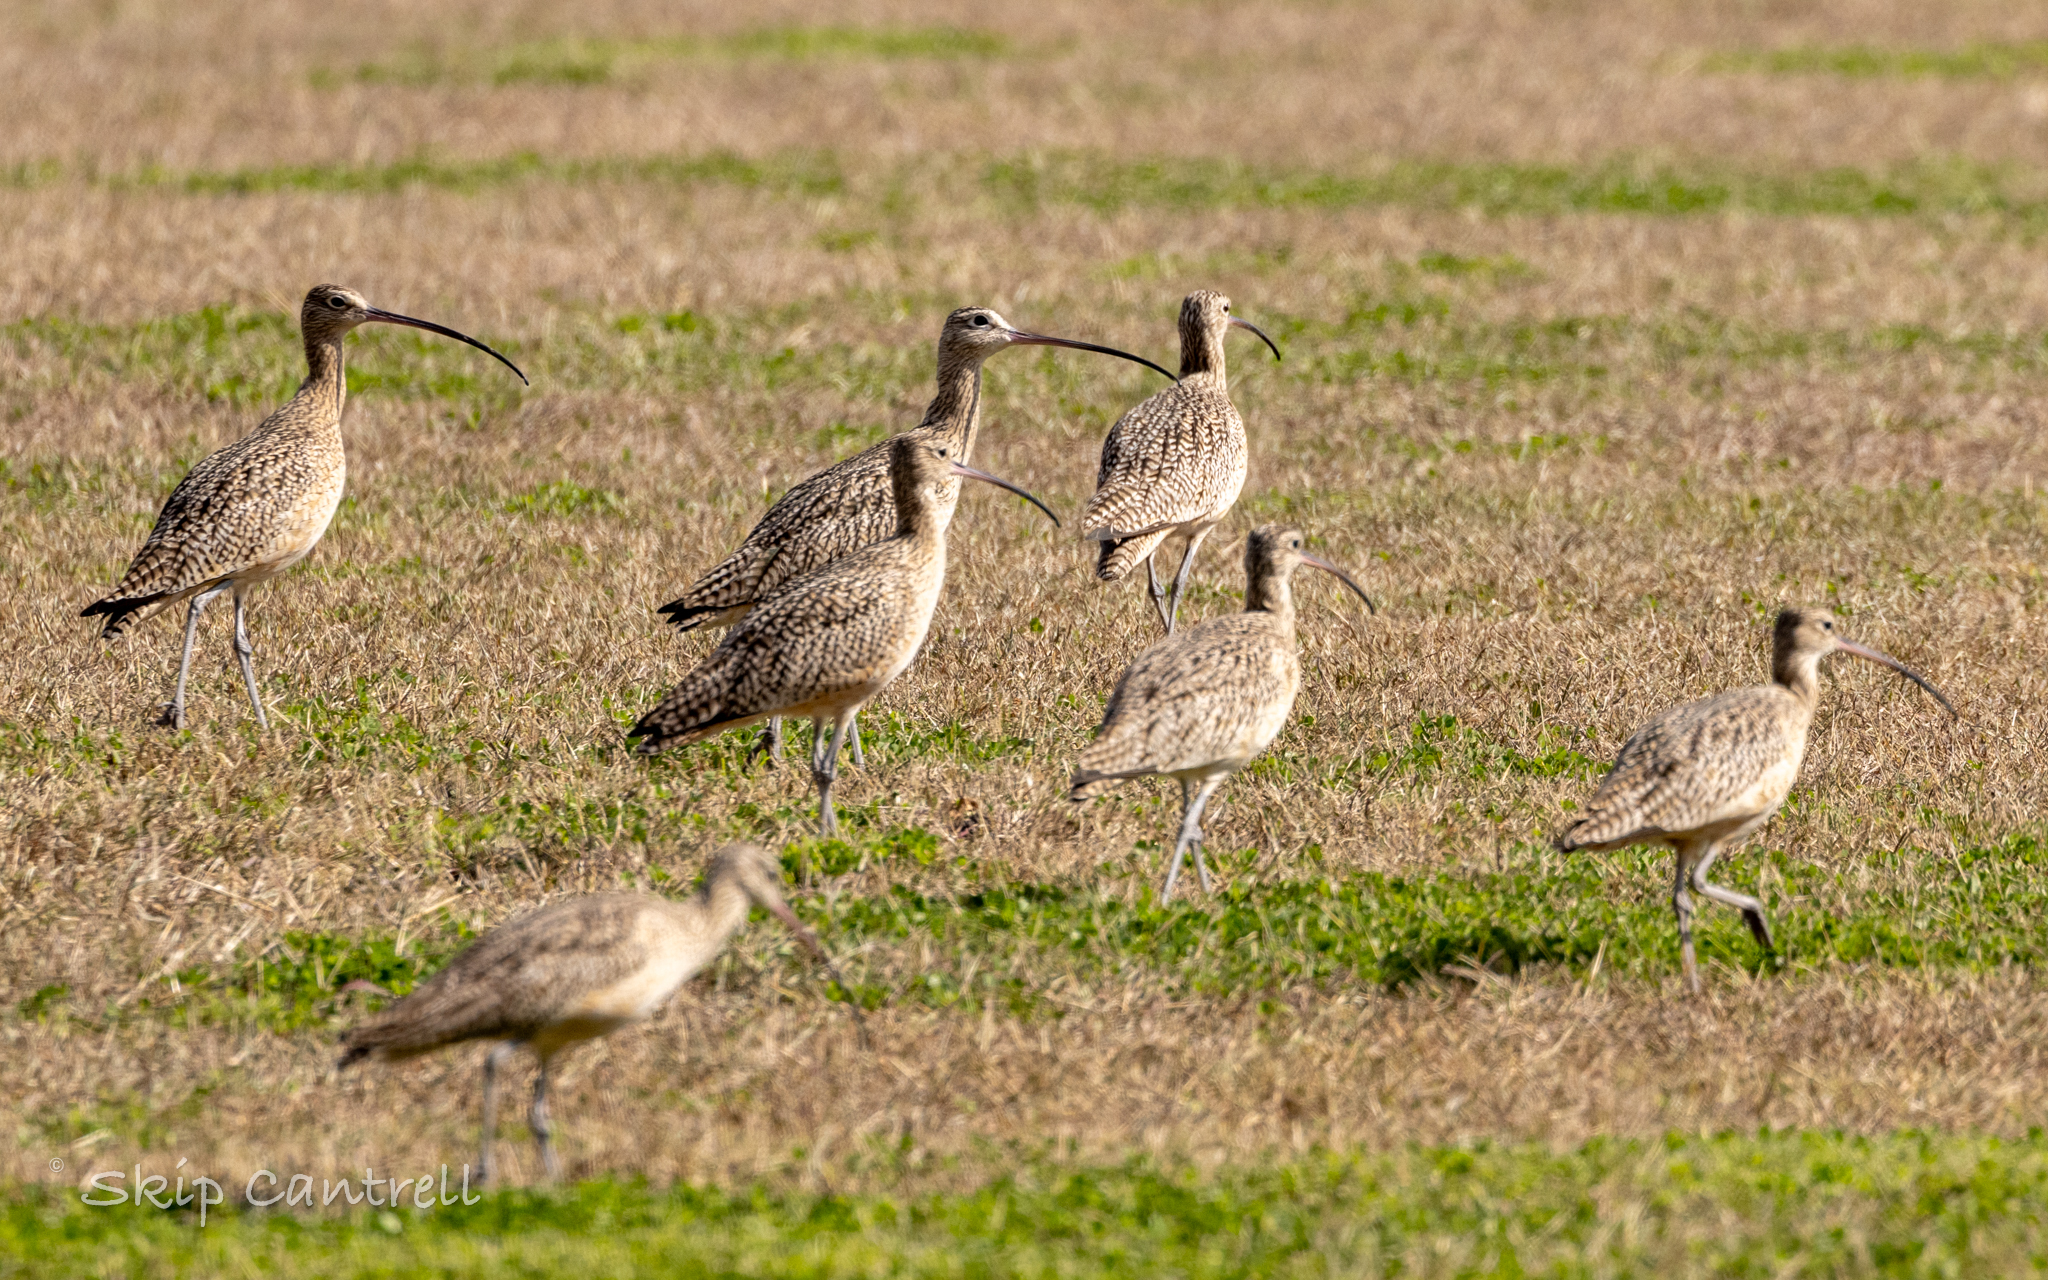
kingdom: Animalia
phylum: Chordata
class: Aves
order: Charadriiformes
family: Scolopacidae
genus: Numenius
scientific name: Numenius americanus
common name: Long-billed curlew
